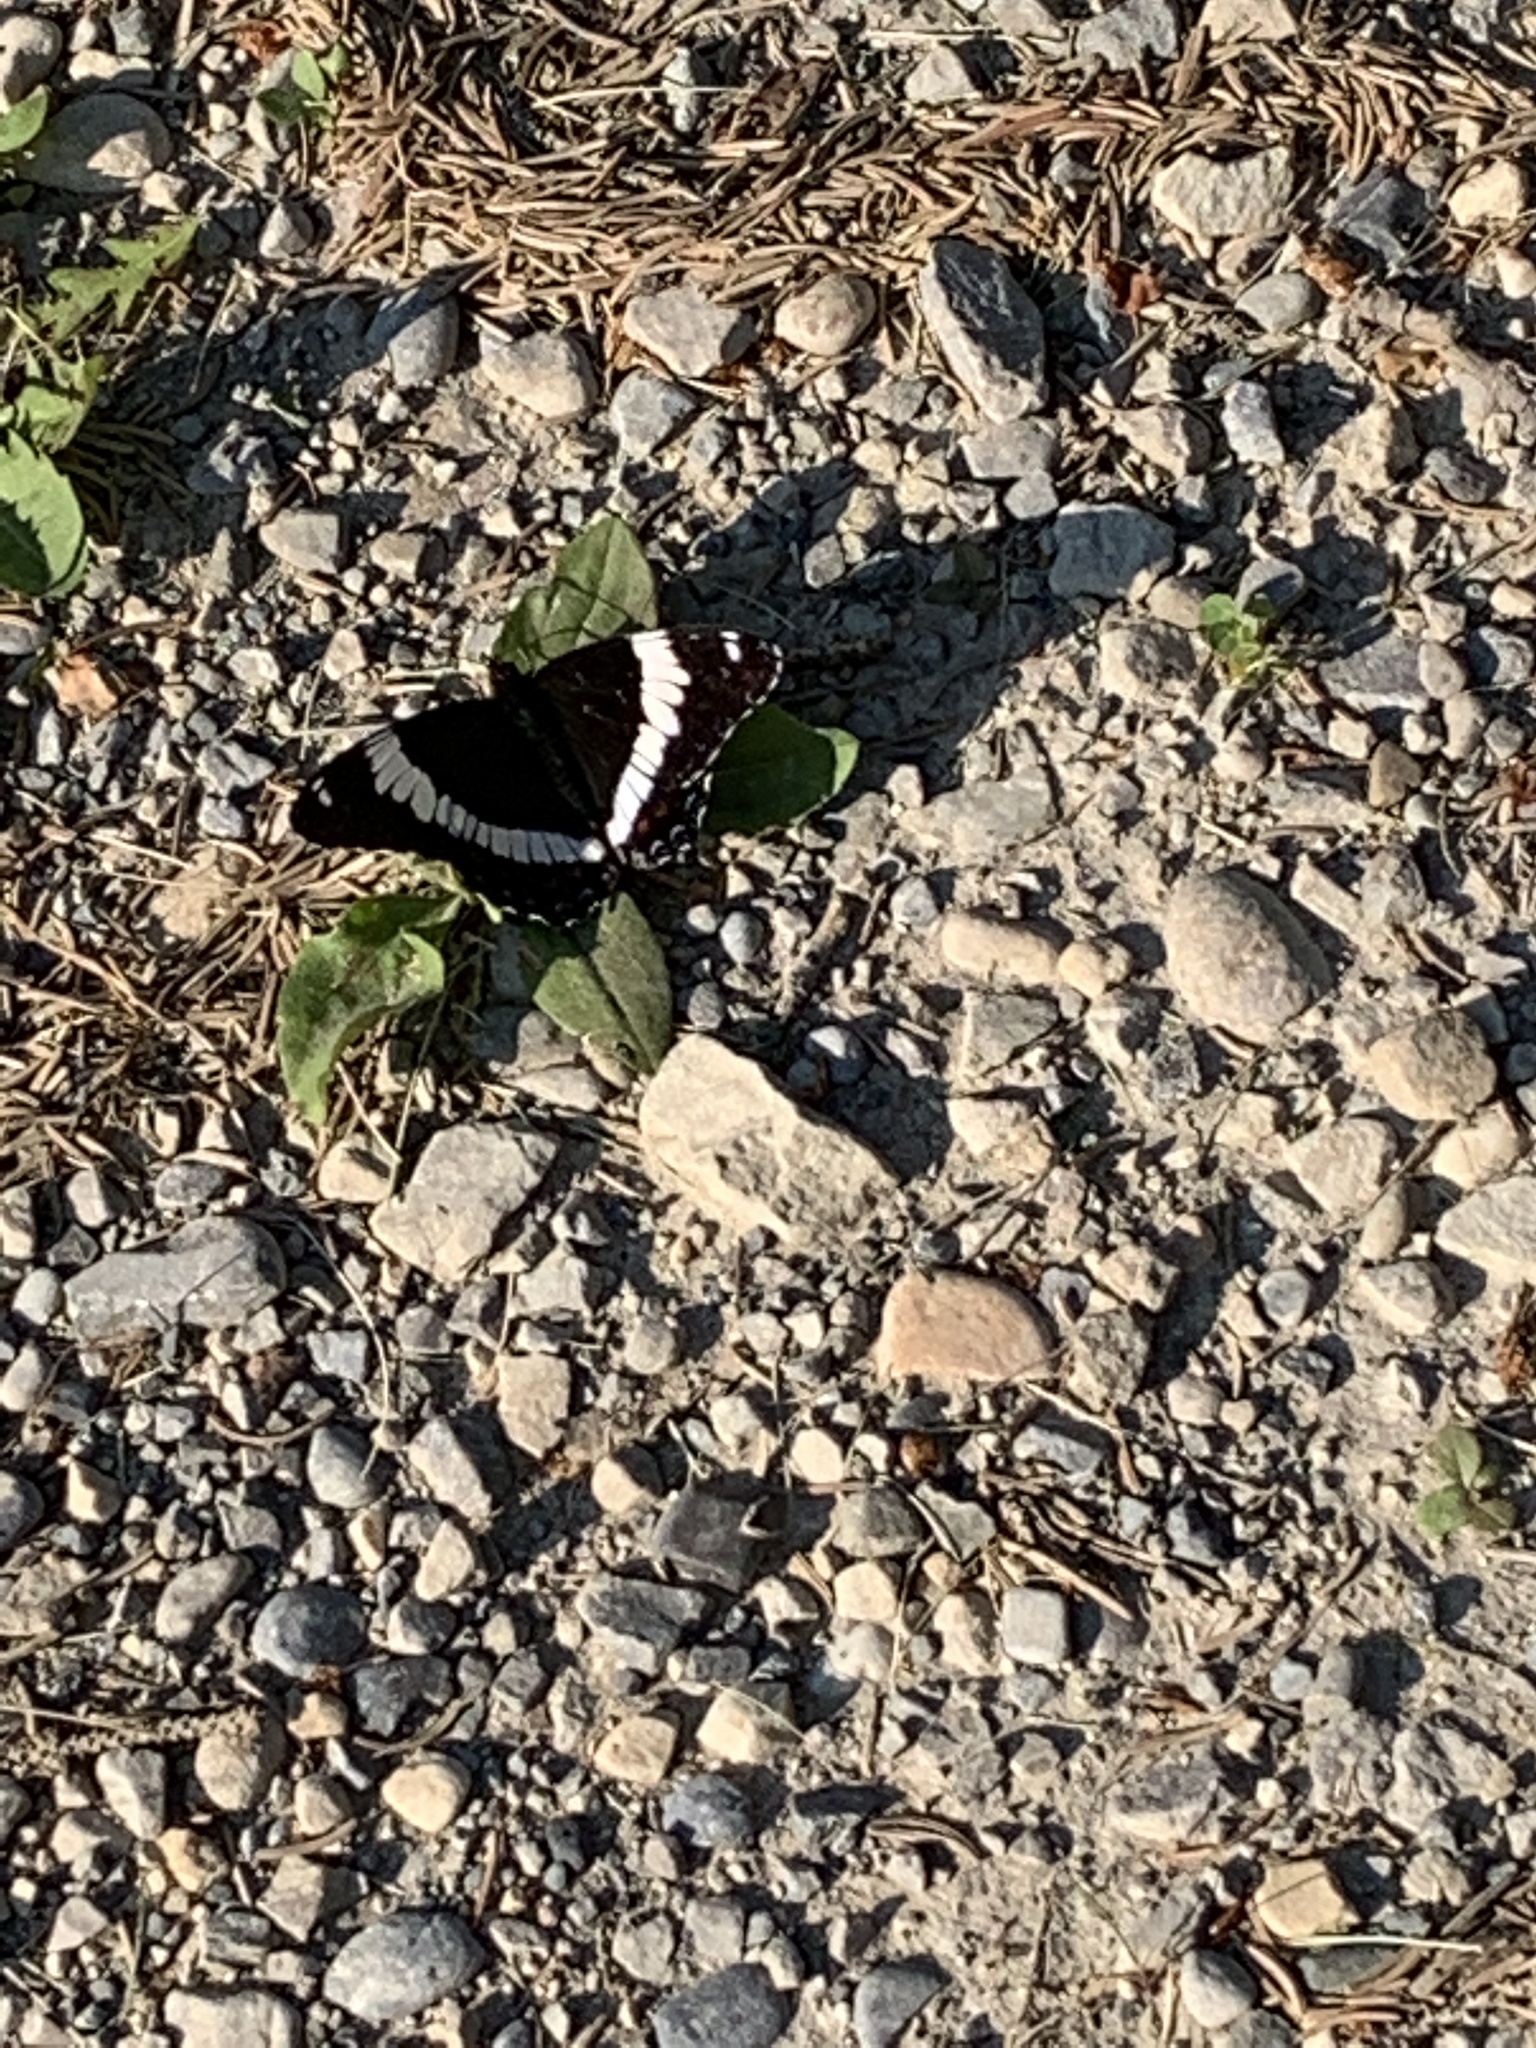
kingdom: Animalia
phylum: Arthropoda
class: Insecta
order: Lepidoptera
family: Nymphalidae
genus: Limenitis
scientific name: Limenitis arthemis
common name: Red-spotted admiral
